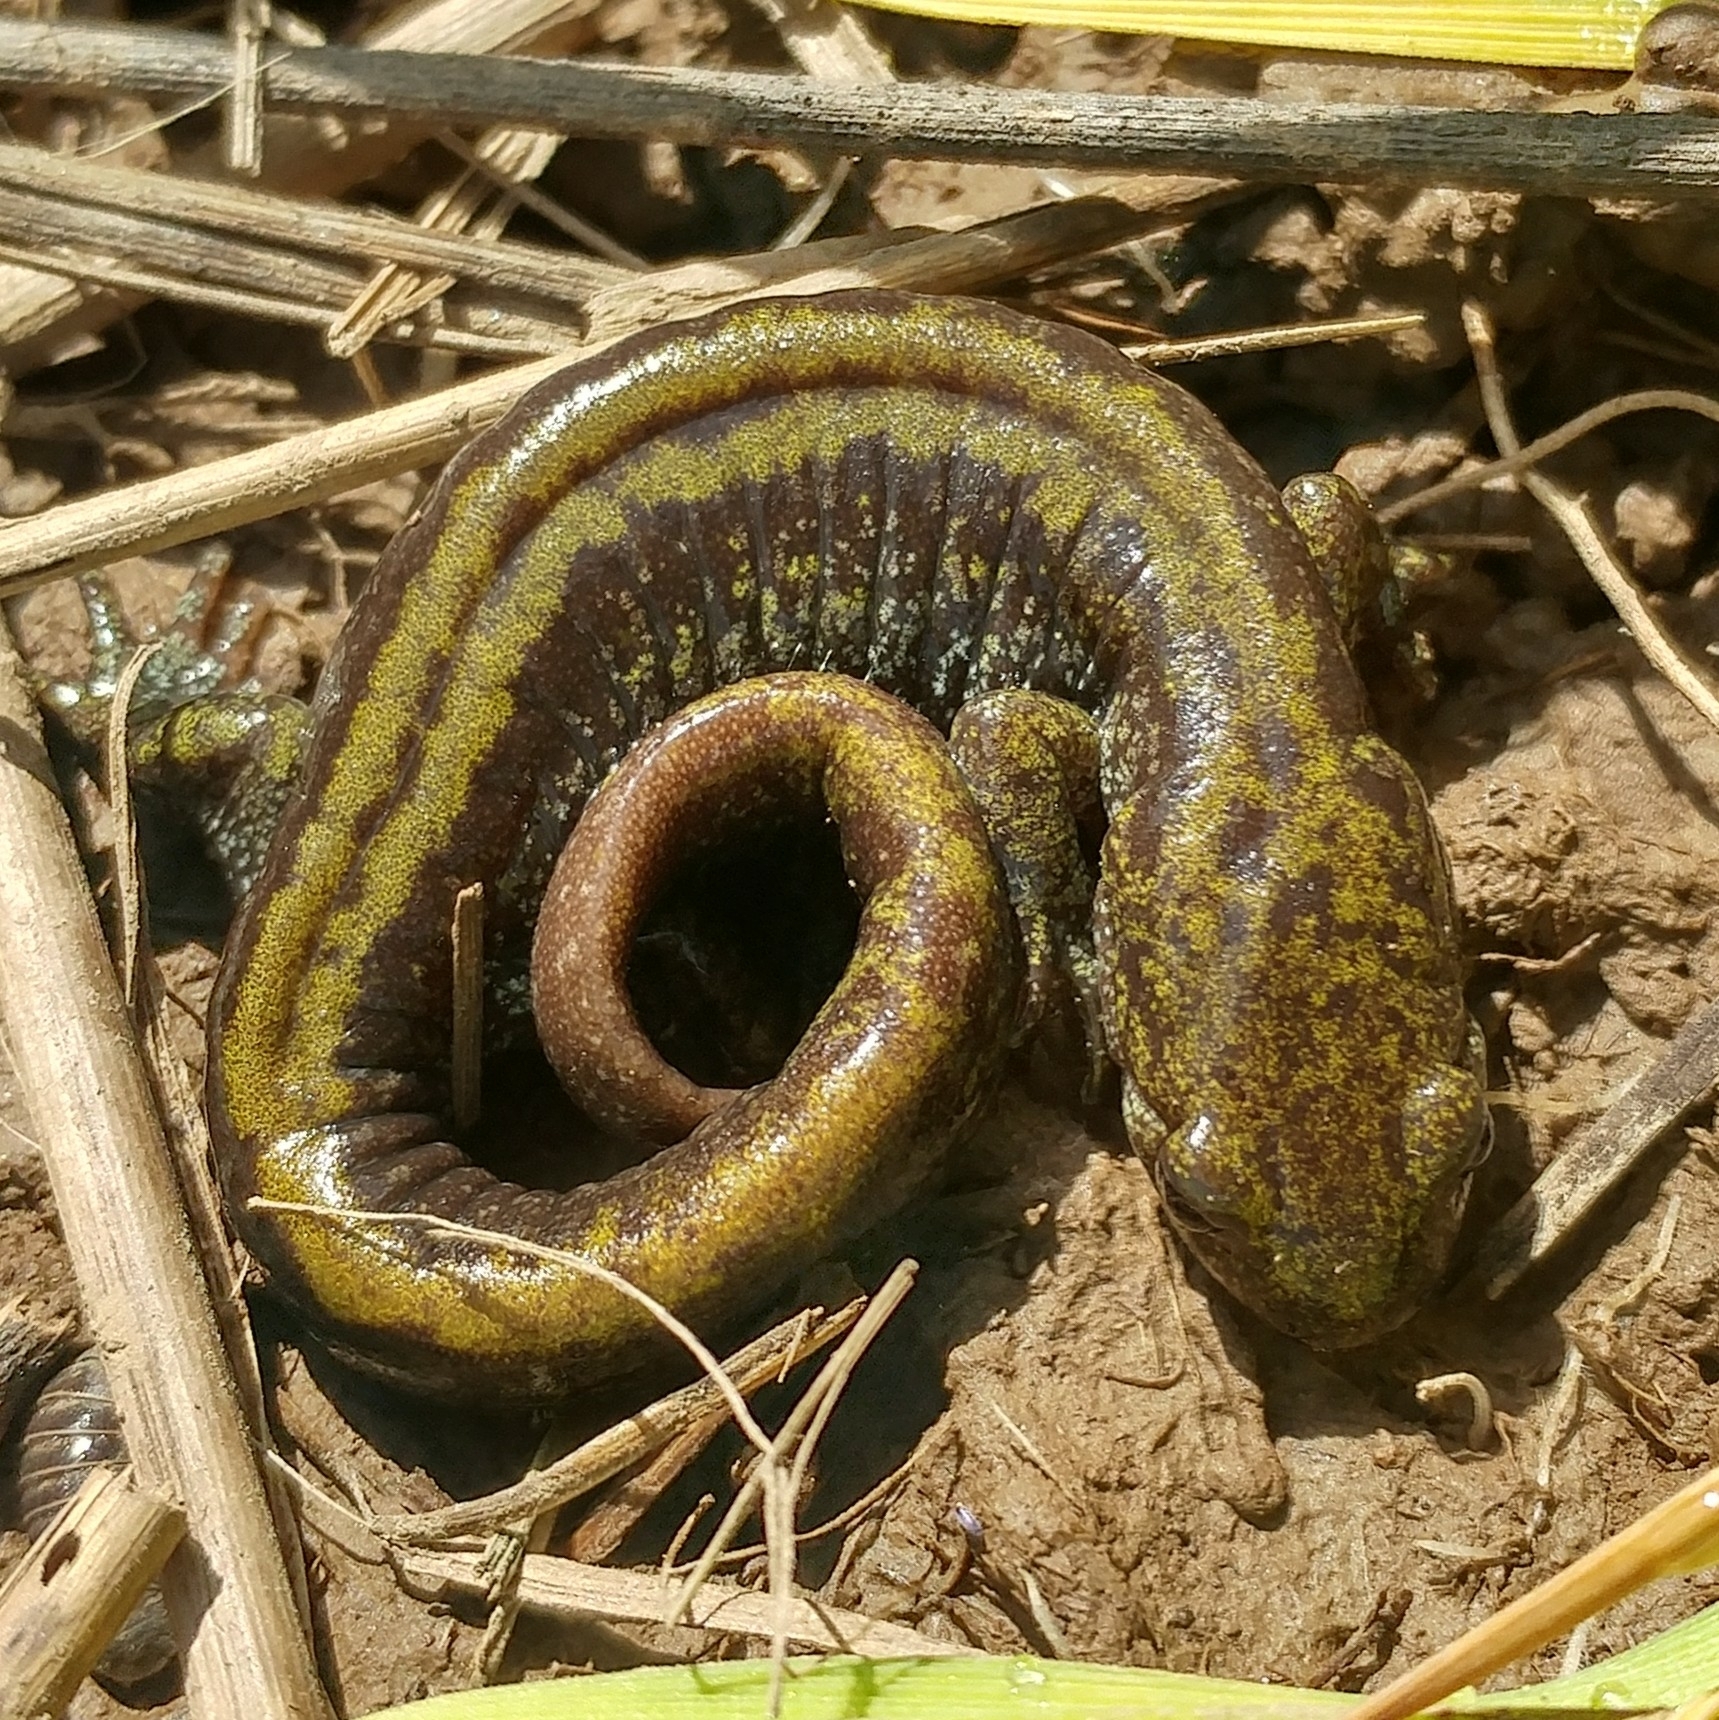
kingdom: Animalia
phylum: Chordata
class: Amphibia
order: Caudata
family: Ambystomatidae
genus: Ambystoma
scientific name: Ambystoma macrodactylum
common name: Long-toed salamander
